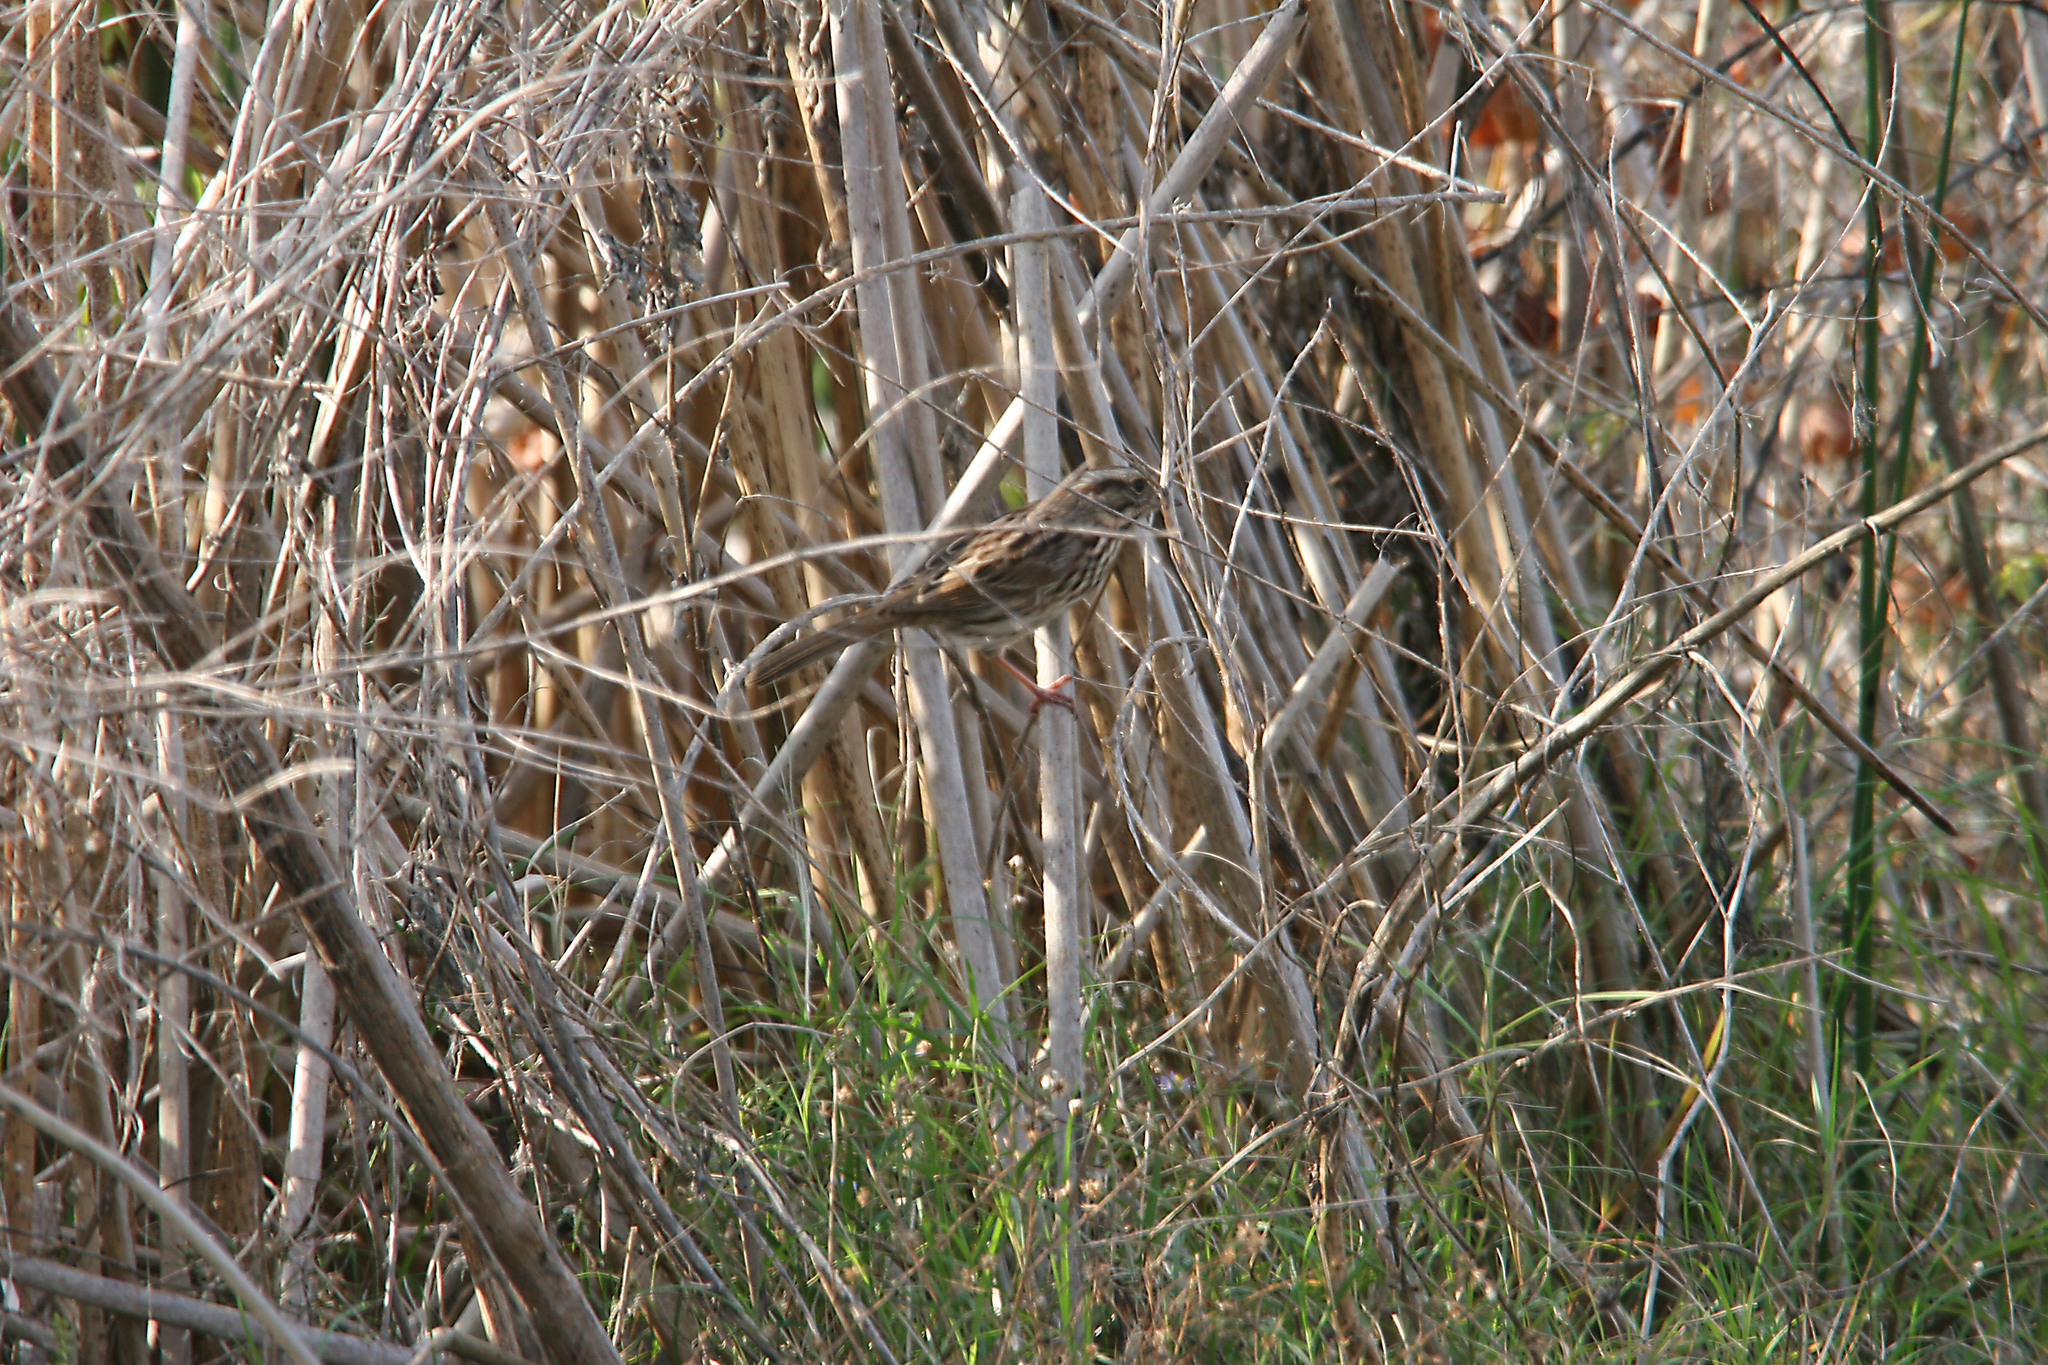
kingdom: Animalia
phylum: Chordata
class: Aves
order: Passeriformes
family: Passerellidae
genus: Melospiza
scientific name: Melospiza melodia
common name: Song sparrow
